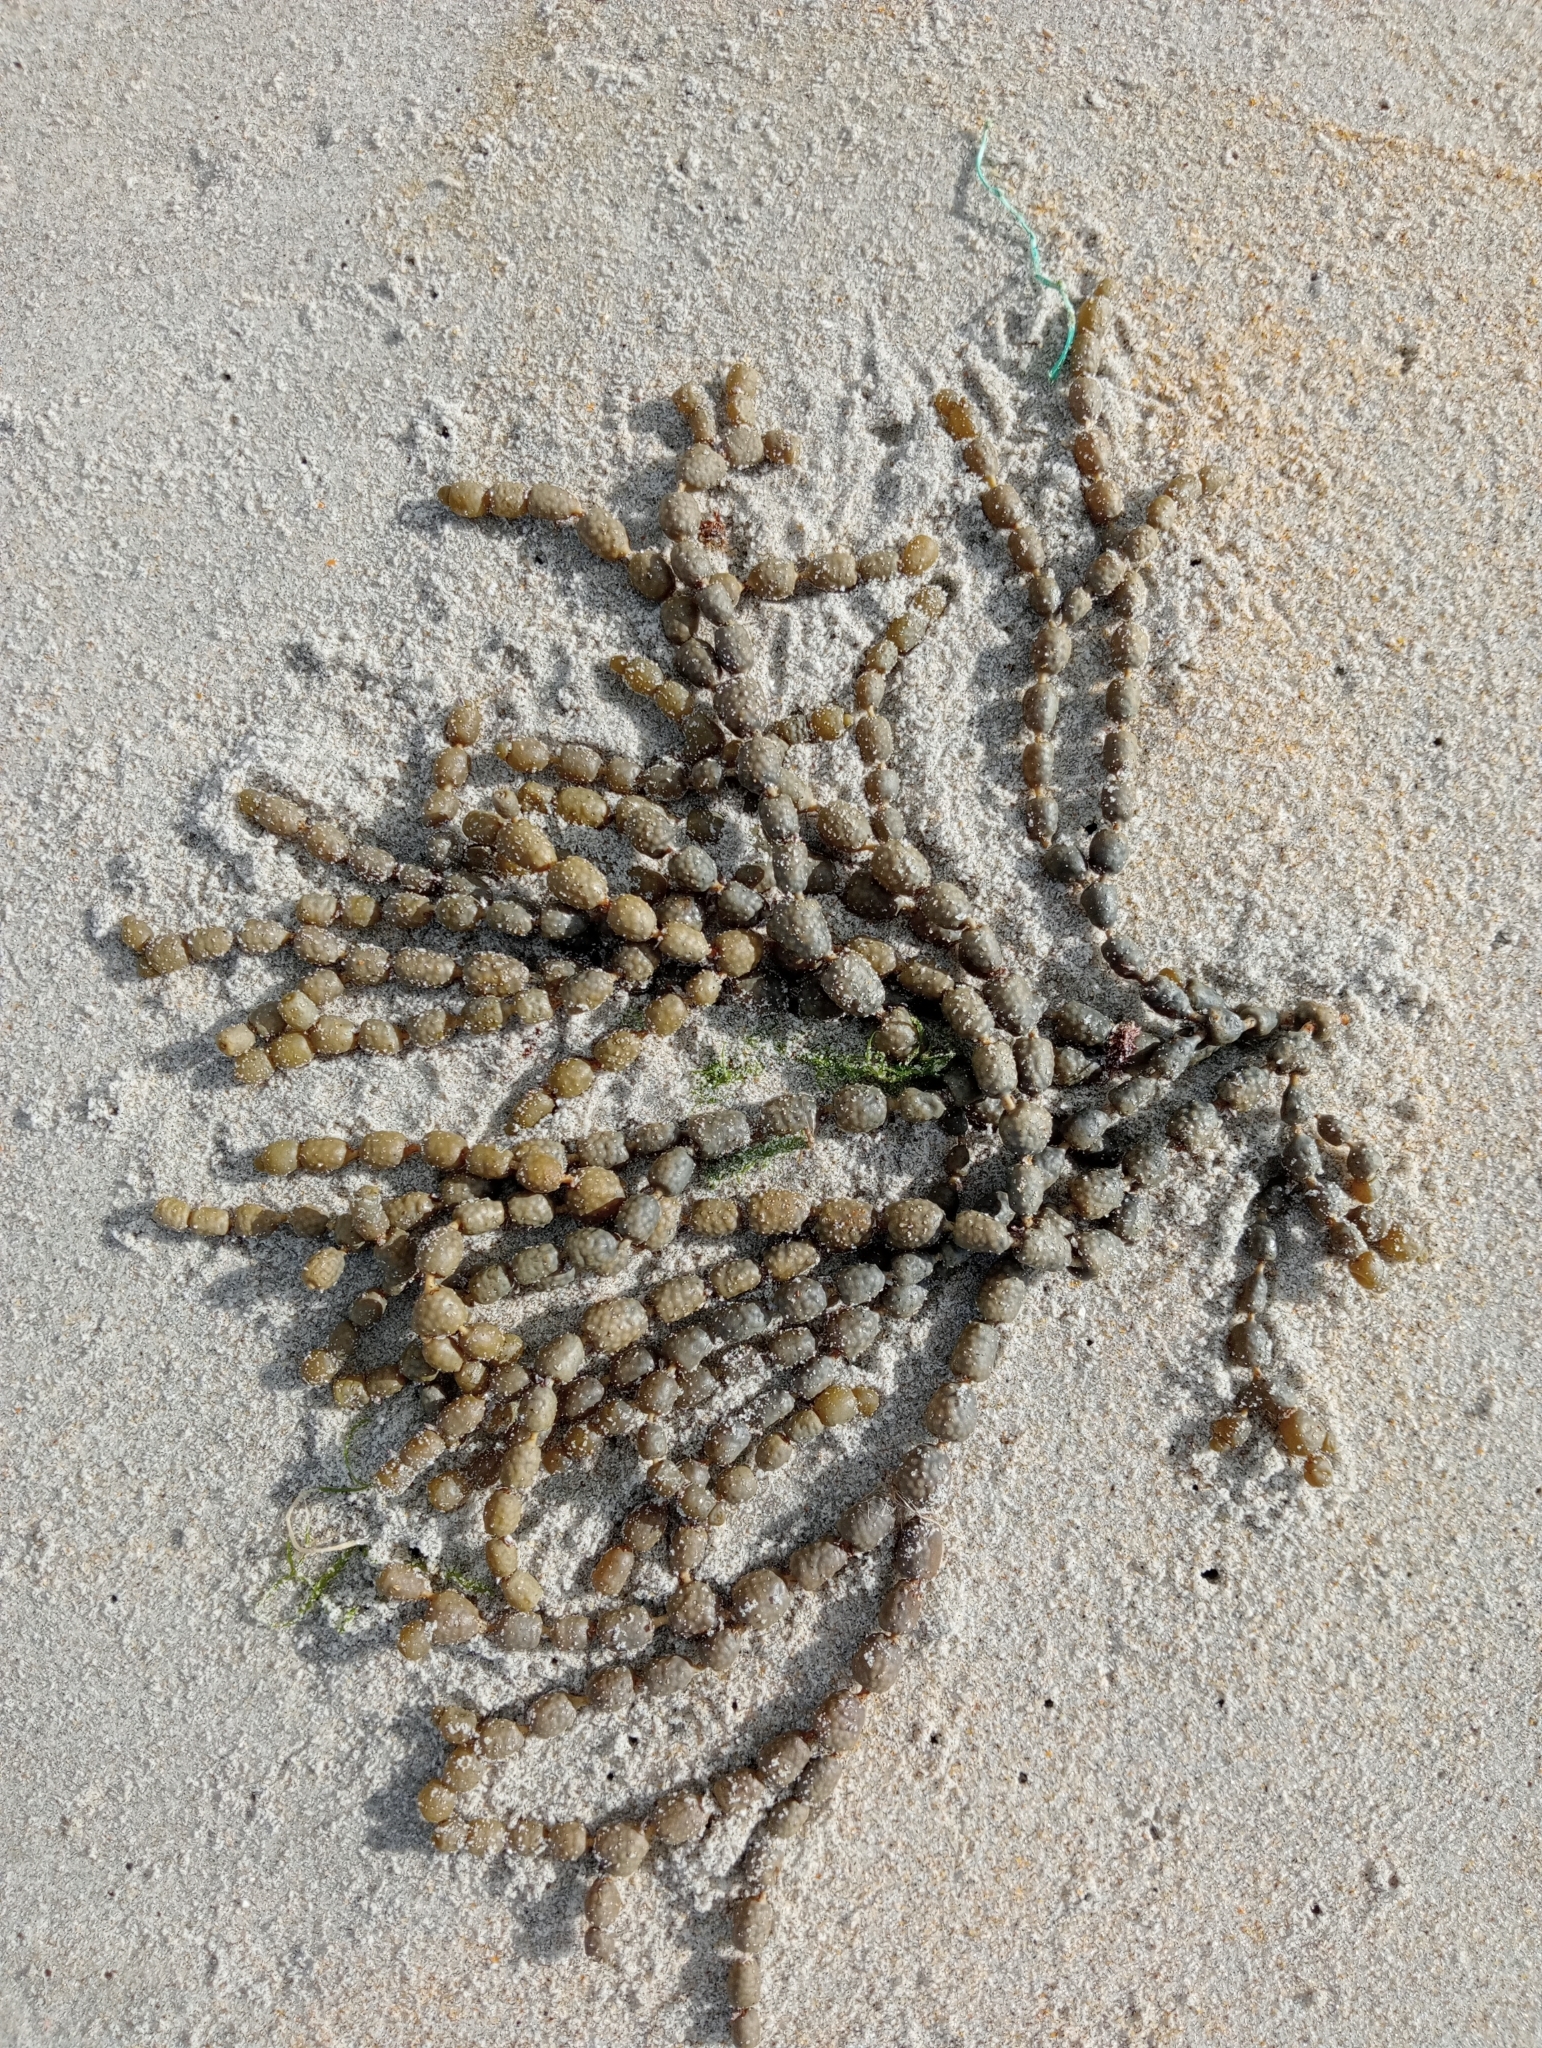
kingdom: Chromista
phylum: Ochrophyta
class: Phaeophyceae
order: Fucales
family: Hormosiraceae
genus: Hormosira
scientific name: Hormosira banksii
